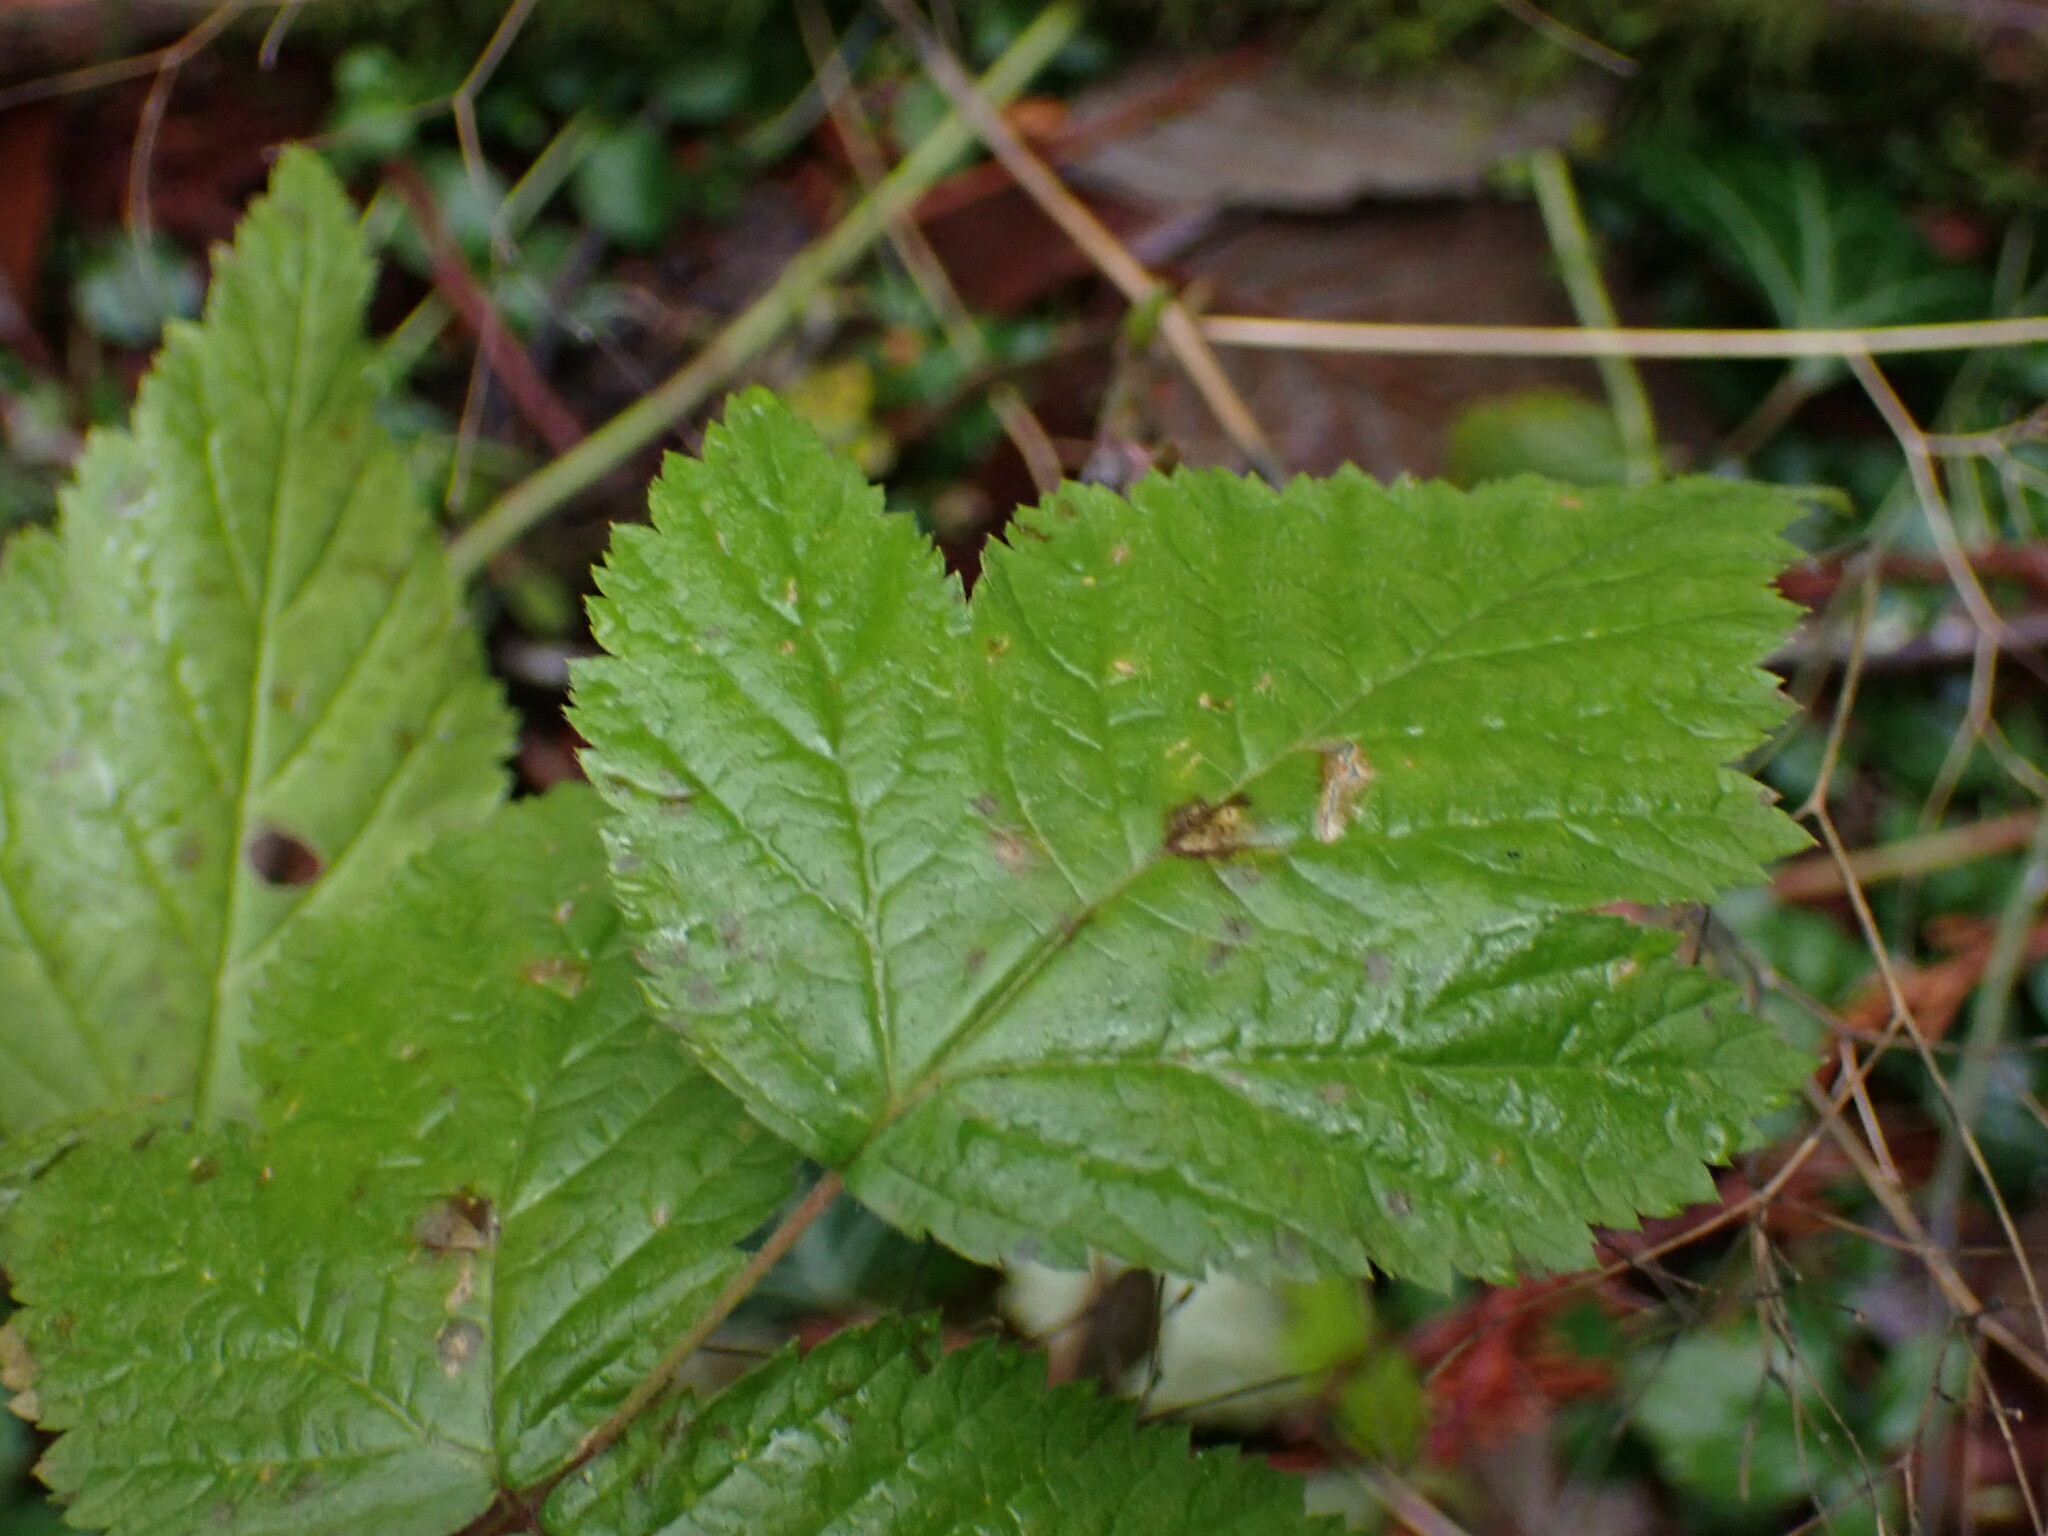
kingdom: Plantae
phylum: Tracheophyta
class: Magnoliopsida
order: Rosales
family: Rosaceae
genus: Rubus
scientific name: Rubus spectabilis
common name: Salmonberry
